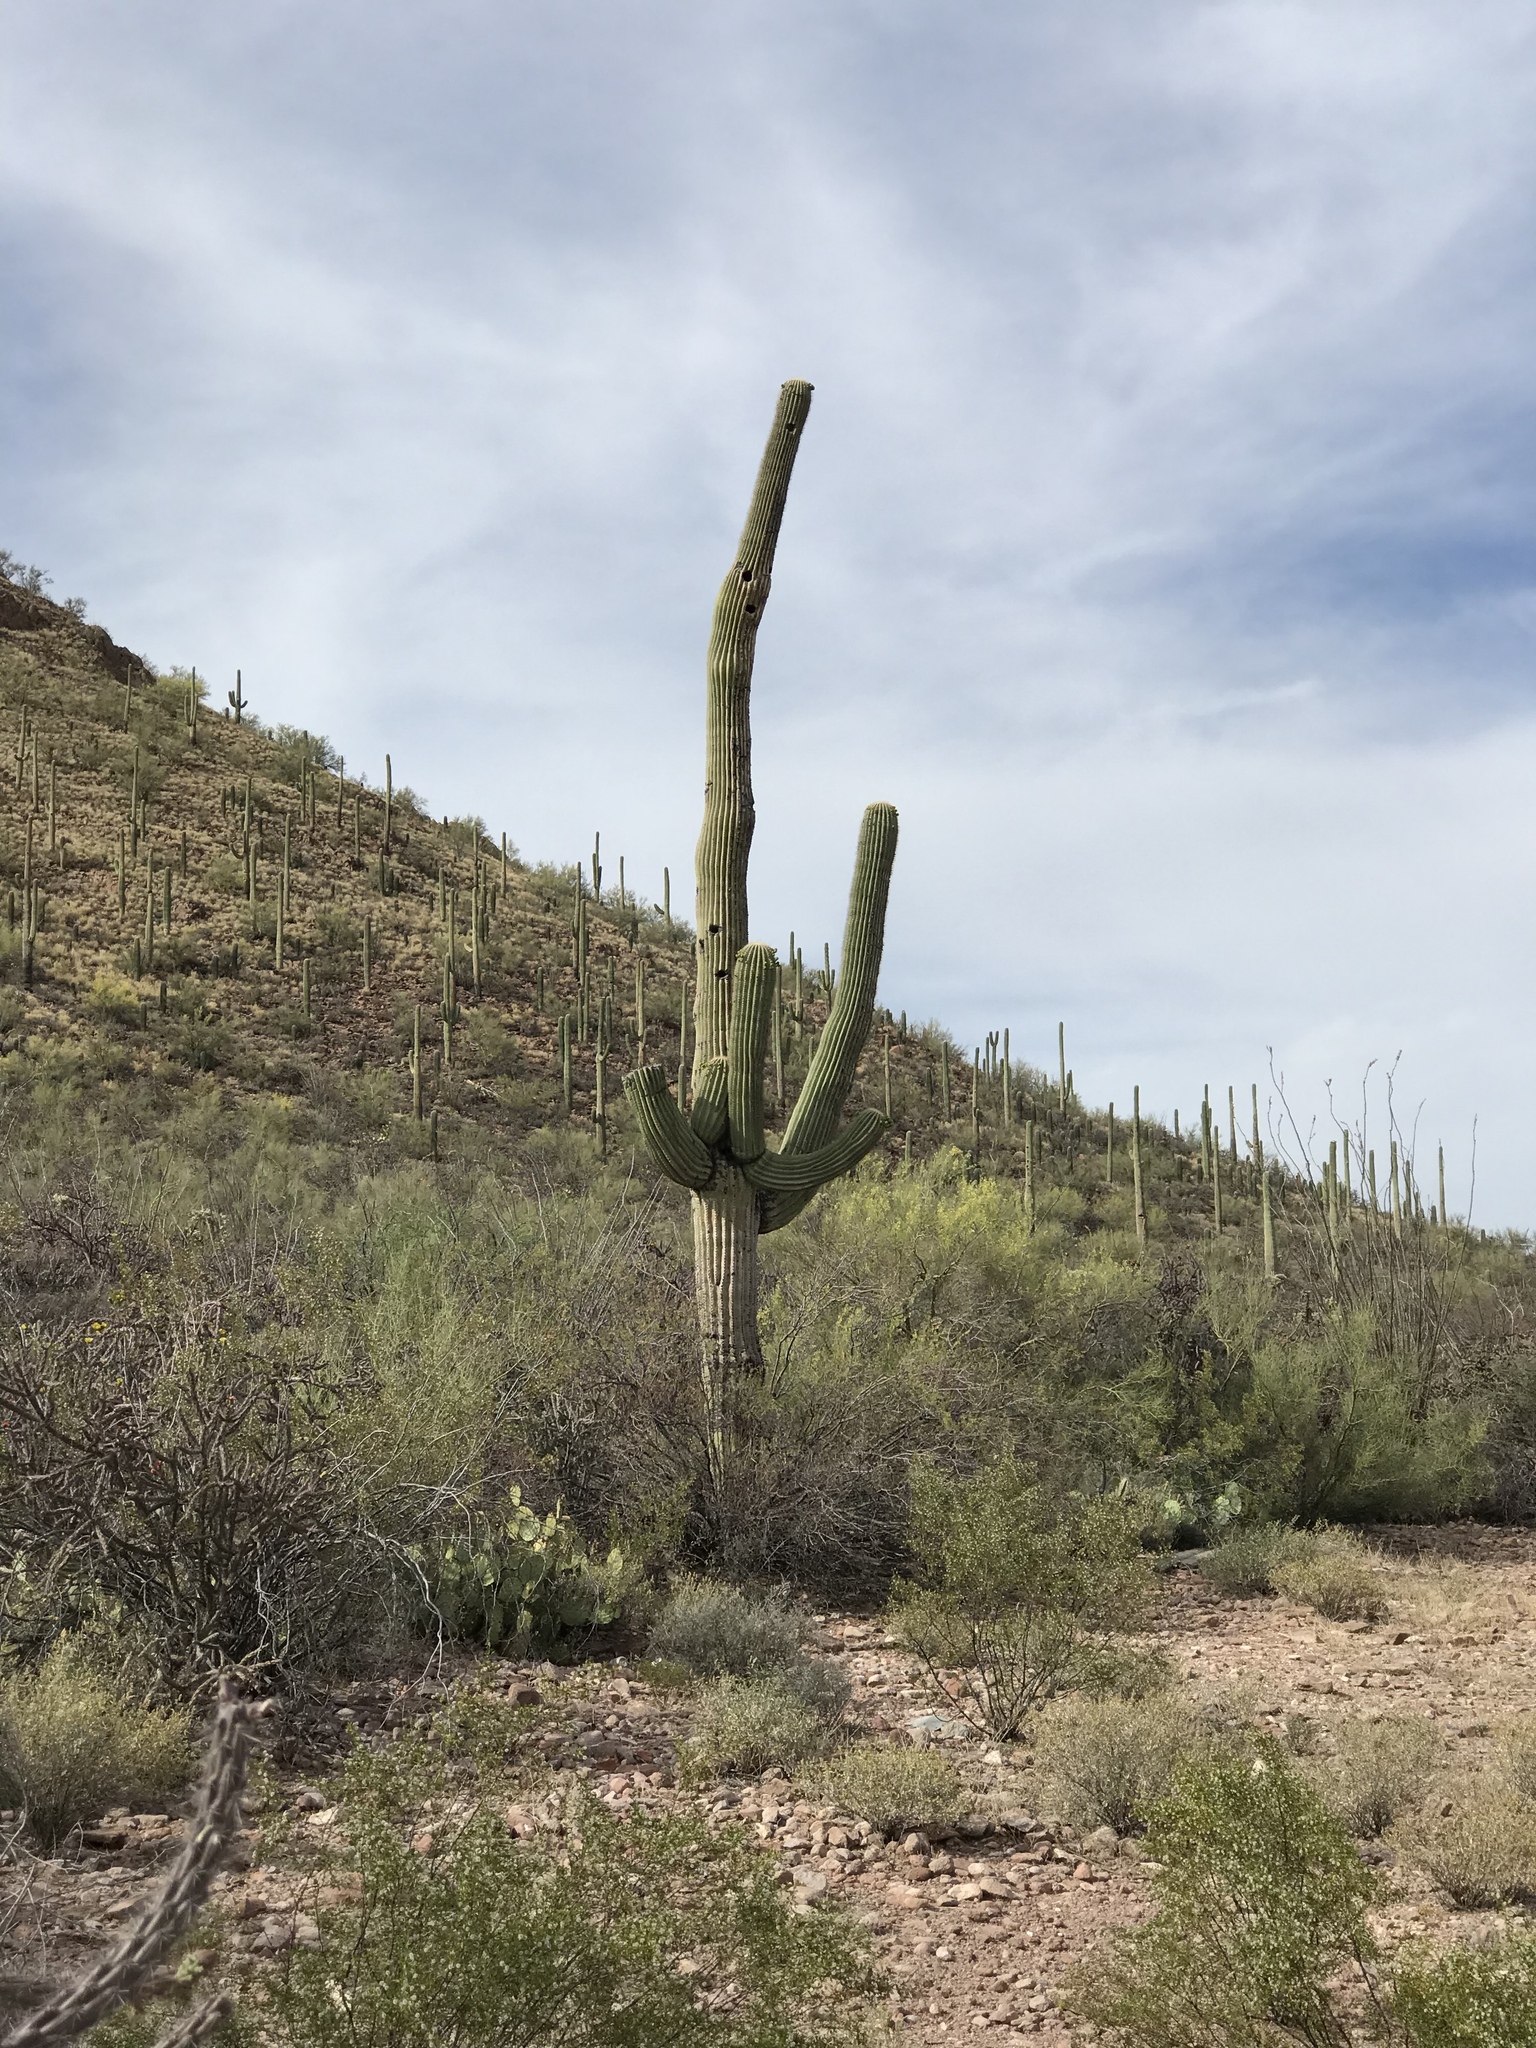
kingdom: Plantae
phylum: Tracheophyta
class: Magnoliopsida
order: Caryophyllales
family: Cactaceae
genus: Carnegiea
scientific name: Carnegiea gigantea
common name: Saguaro
